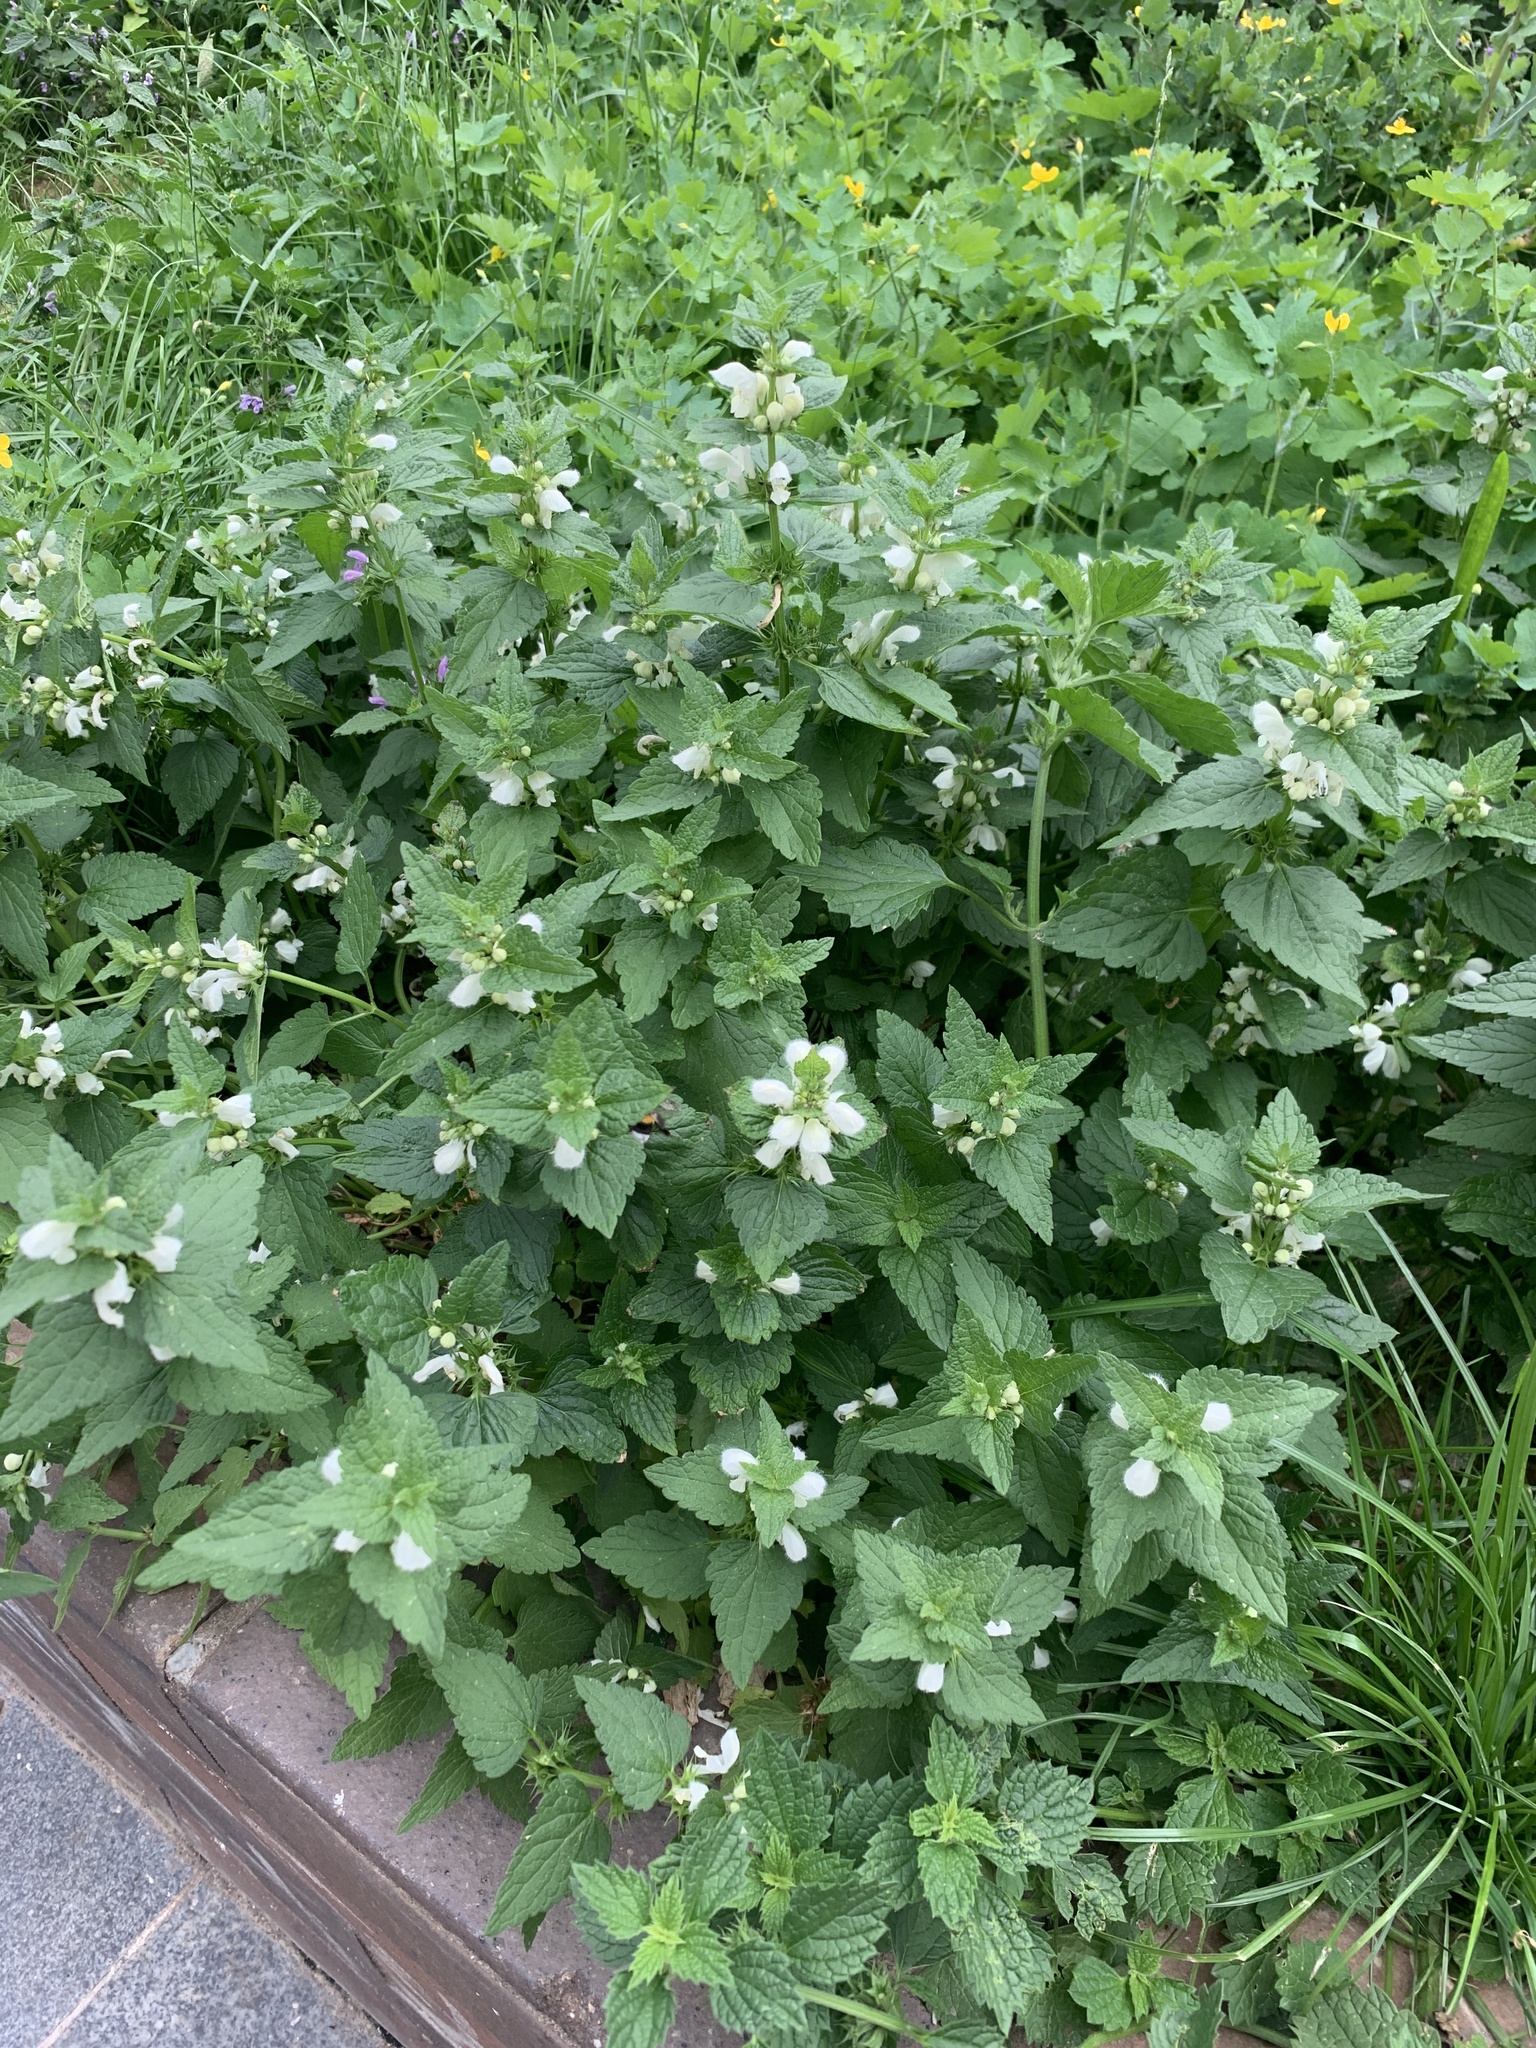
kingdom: Plantae
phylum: Tracheophyta
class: Magnoliopsida
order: Lamiales
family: Lamiaceae
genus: Lamium
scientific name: Lamium album
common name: White dead-nettle
